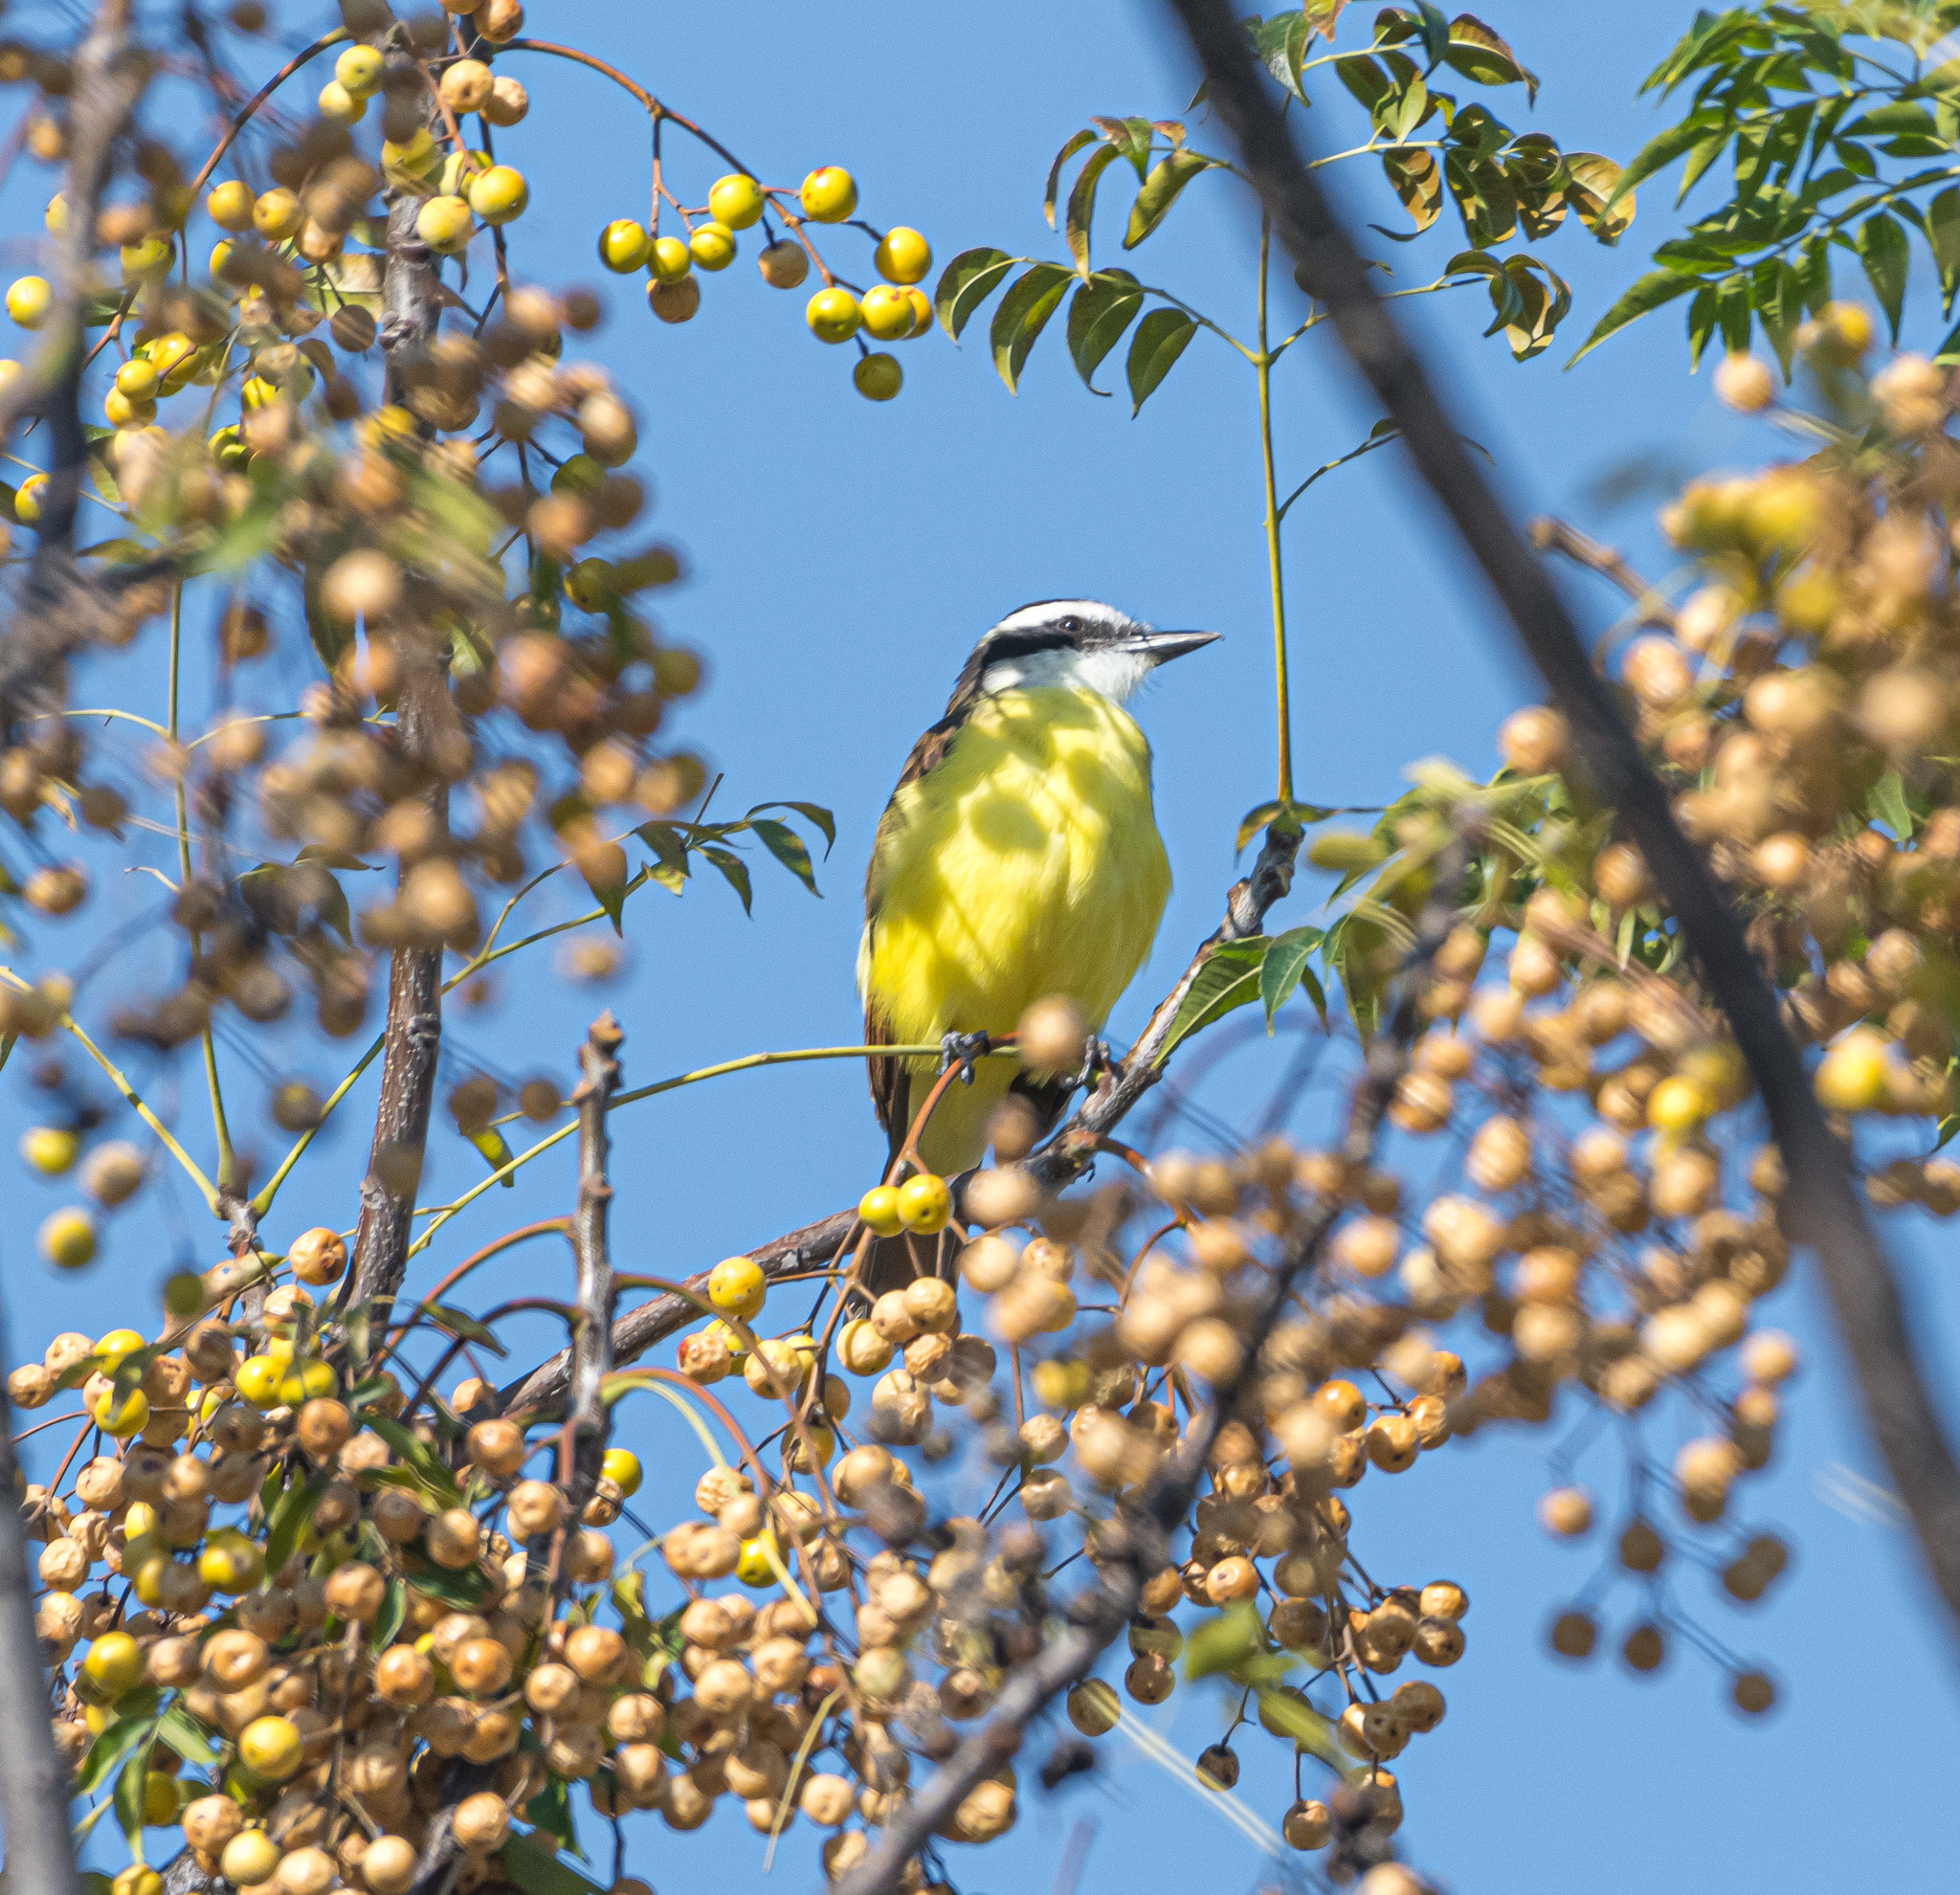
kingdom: Animalia
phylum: Chordata
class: Aves
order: Passeriformes
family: Tyrannidae
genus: Pitangus
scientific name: Pitangus sulphuratus
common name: Great kiskadee
